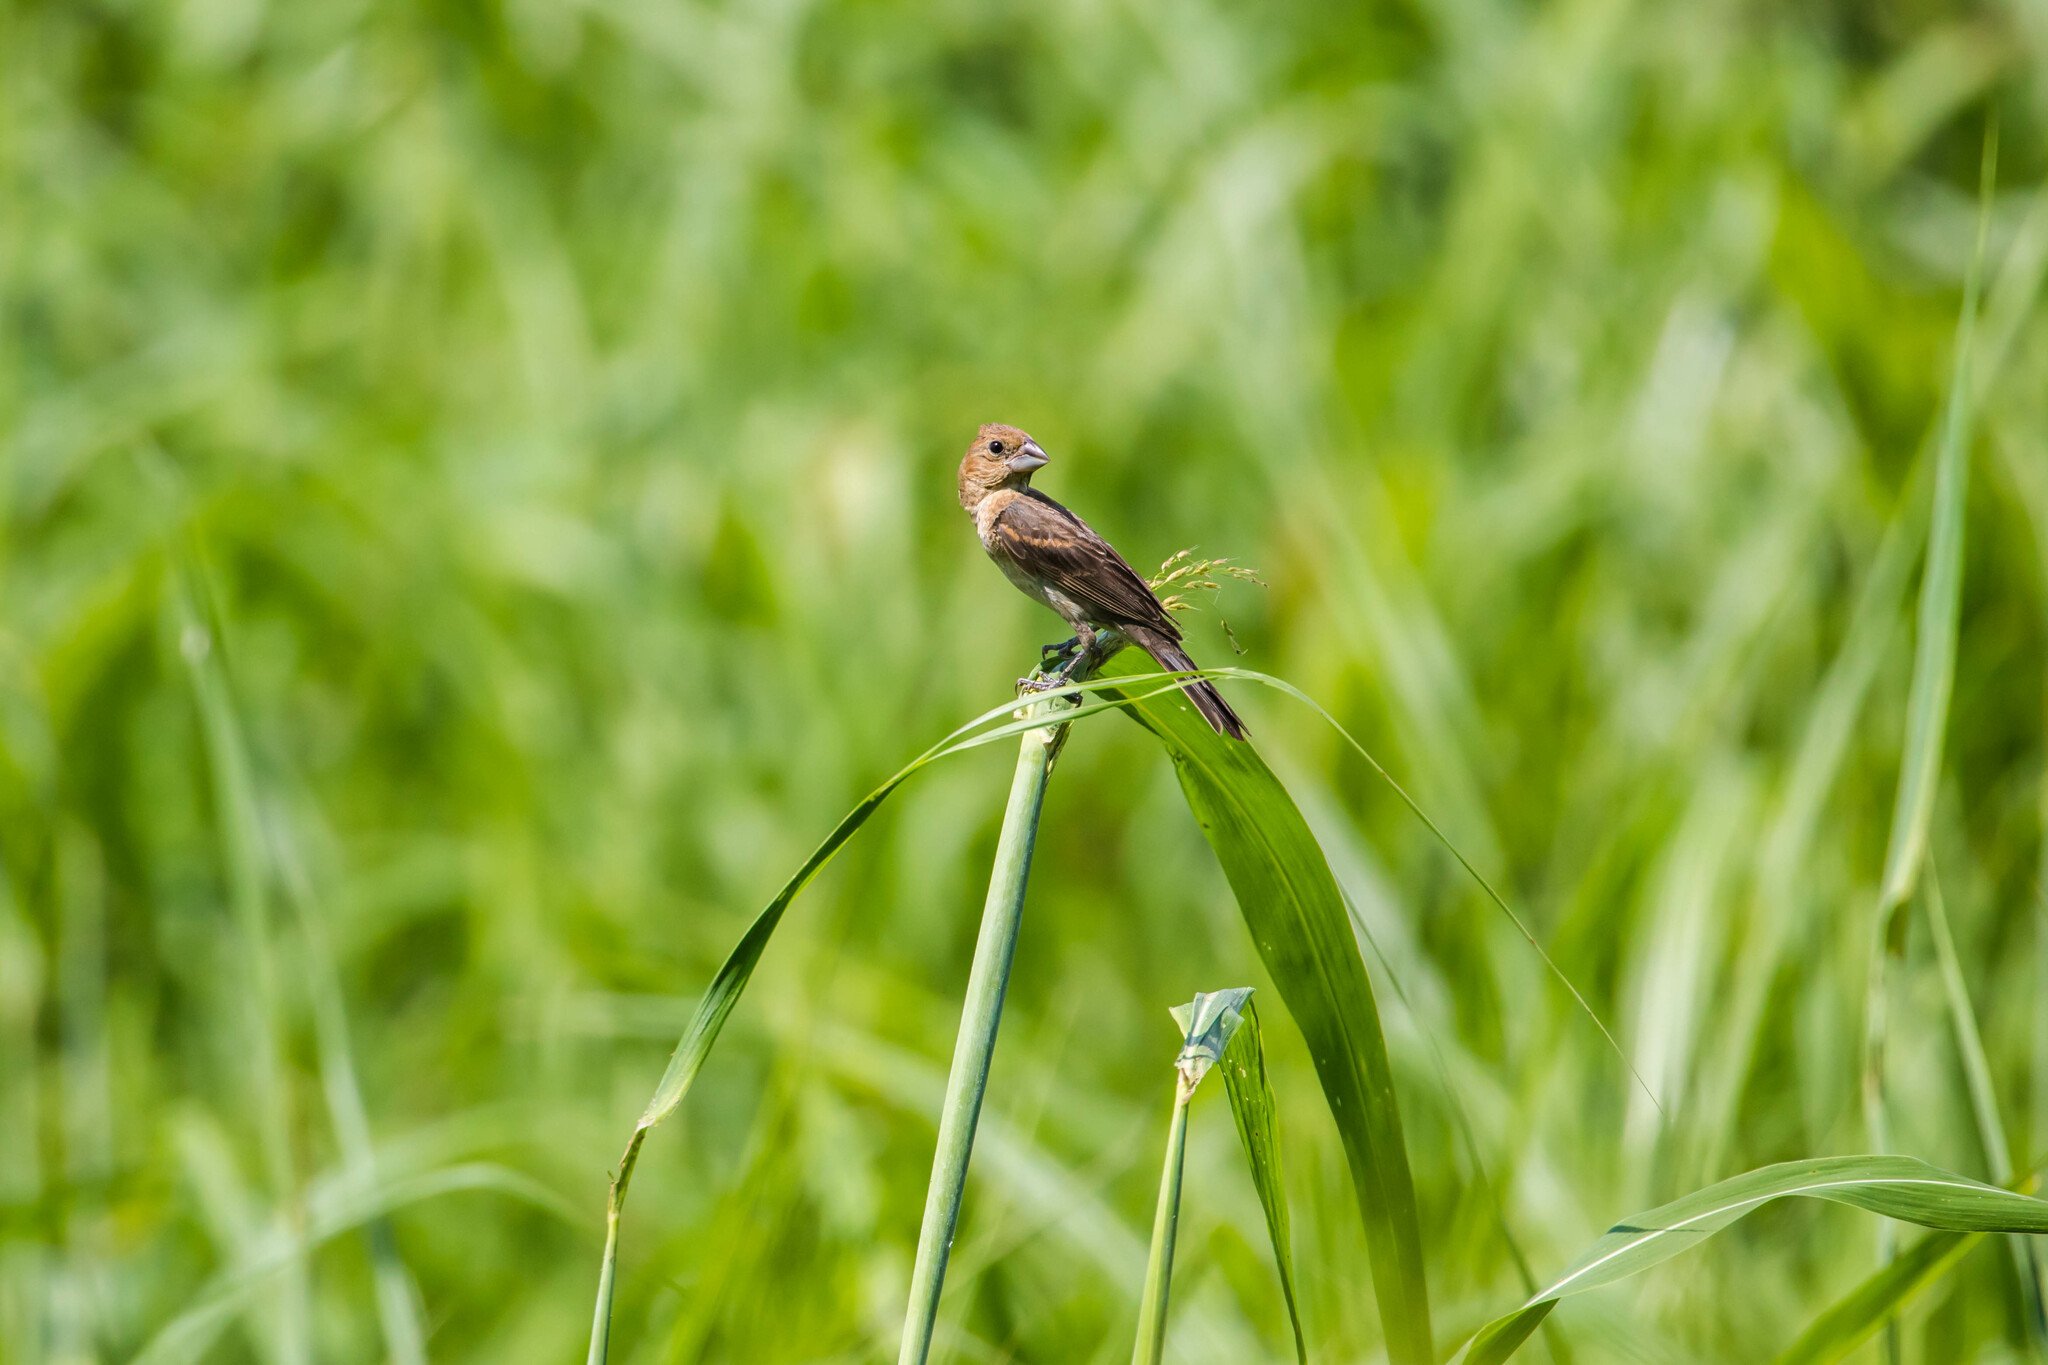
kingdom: Animalia
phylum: Chordata
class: Aves
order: Passeriformes
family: Cardinalidae
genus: Passerina
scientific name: Passerina caerulea
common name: Blue grosbeak
